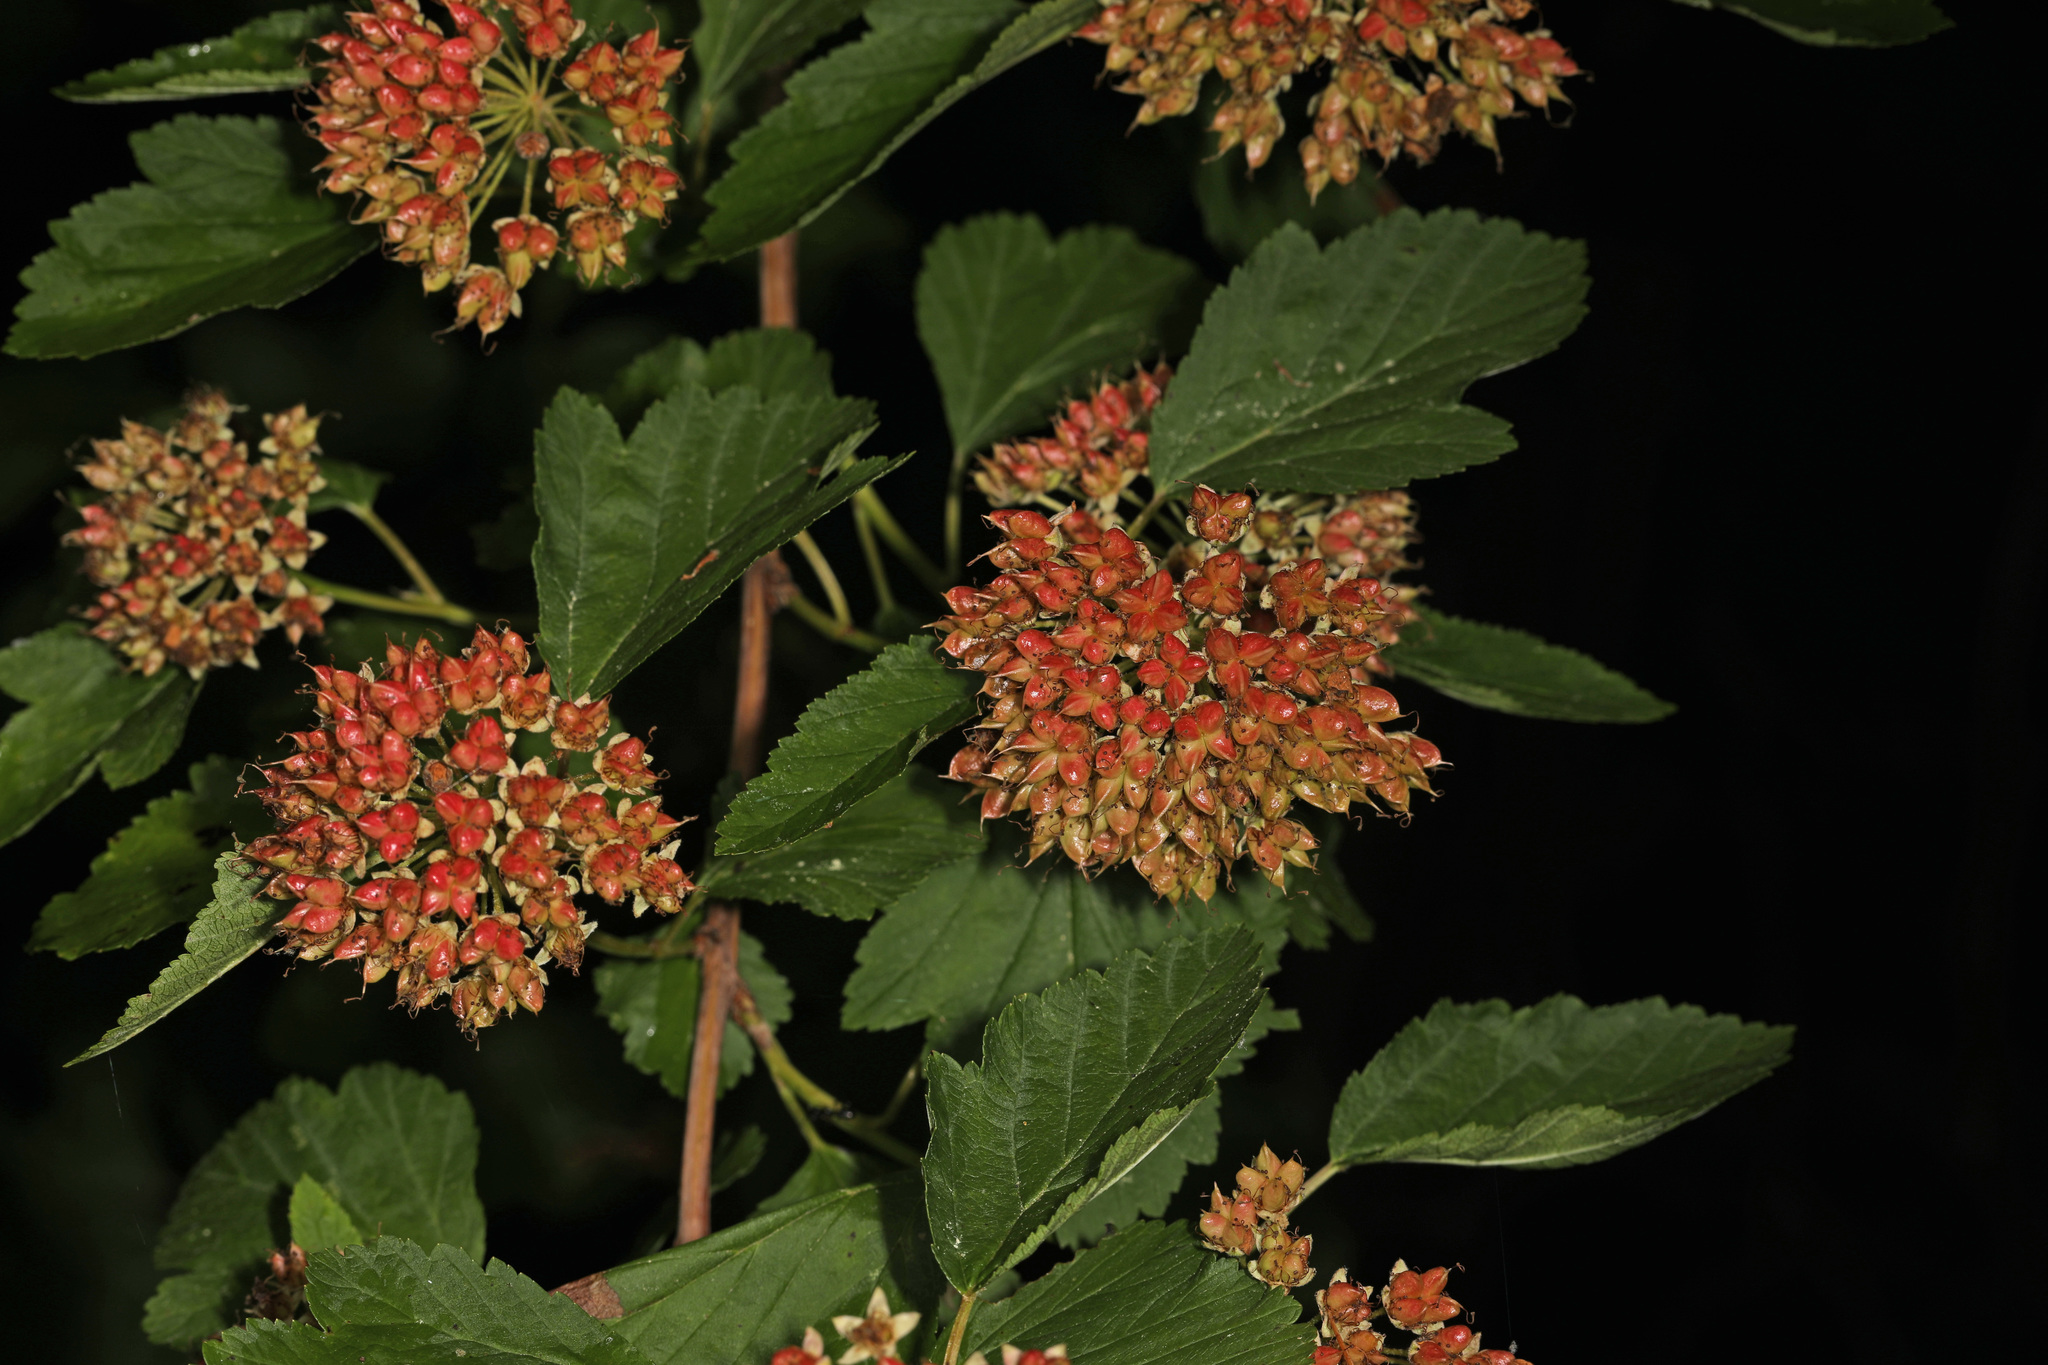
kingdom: Plantae
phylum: Tracheophyta
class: Magnoliopsida
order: Rosales
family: Rosaceae
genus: Physocarpus
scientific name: Physocarpus opulifolius
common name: Ninebark
